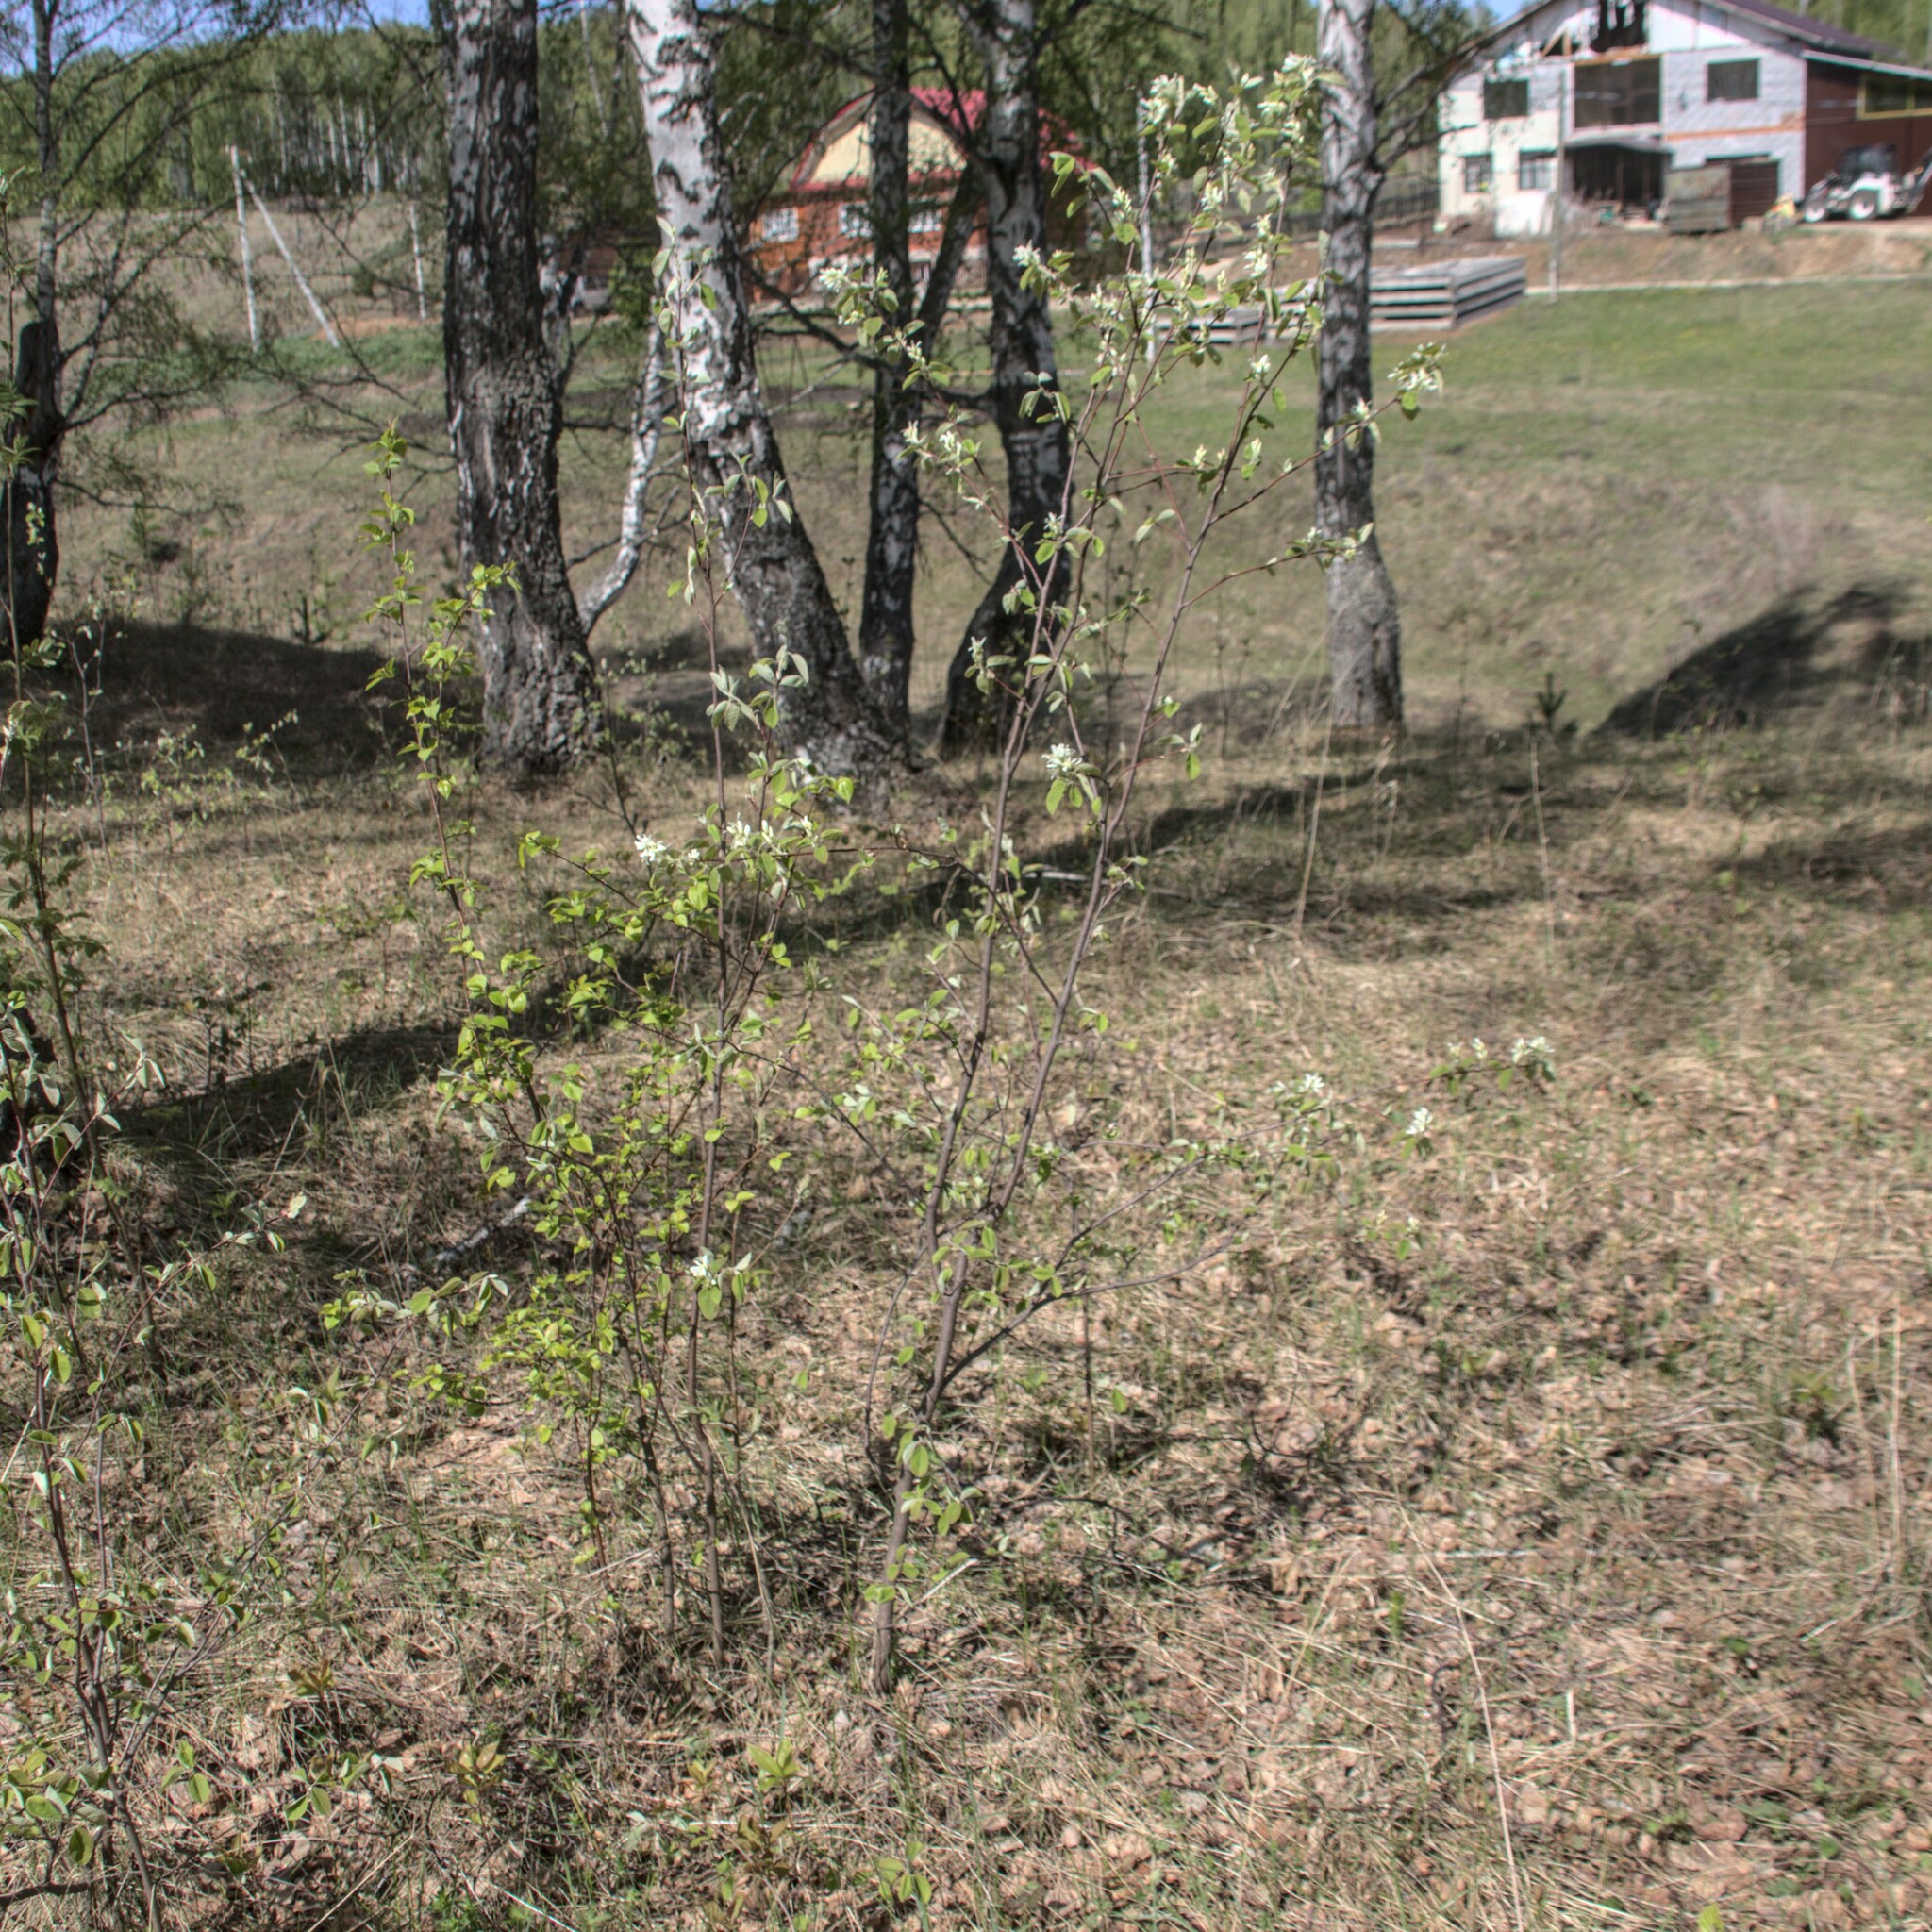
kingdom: Plantae
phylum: Tracheophyta
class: Magnoliopsida
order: Rosales
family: Rosaceae
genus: Amelanchier
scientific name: Amelanchier alnifolia
